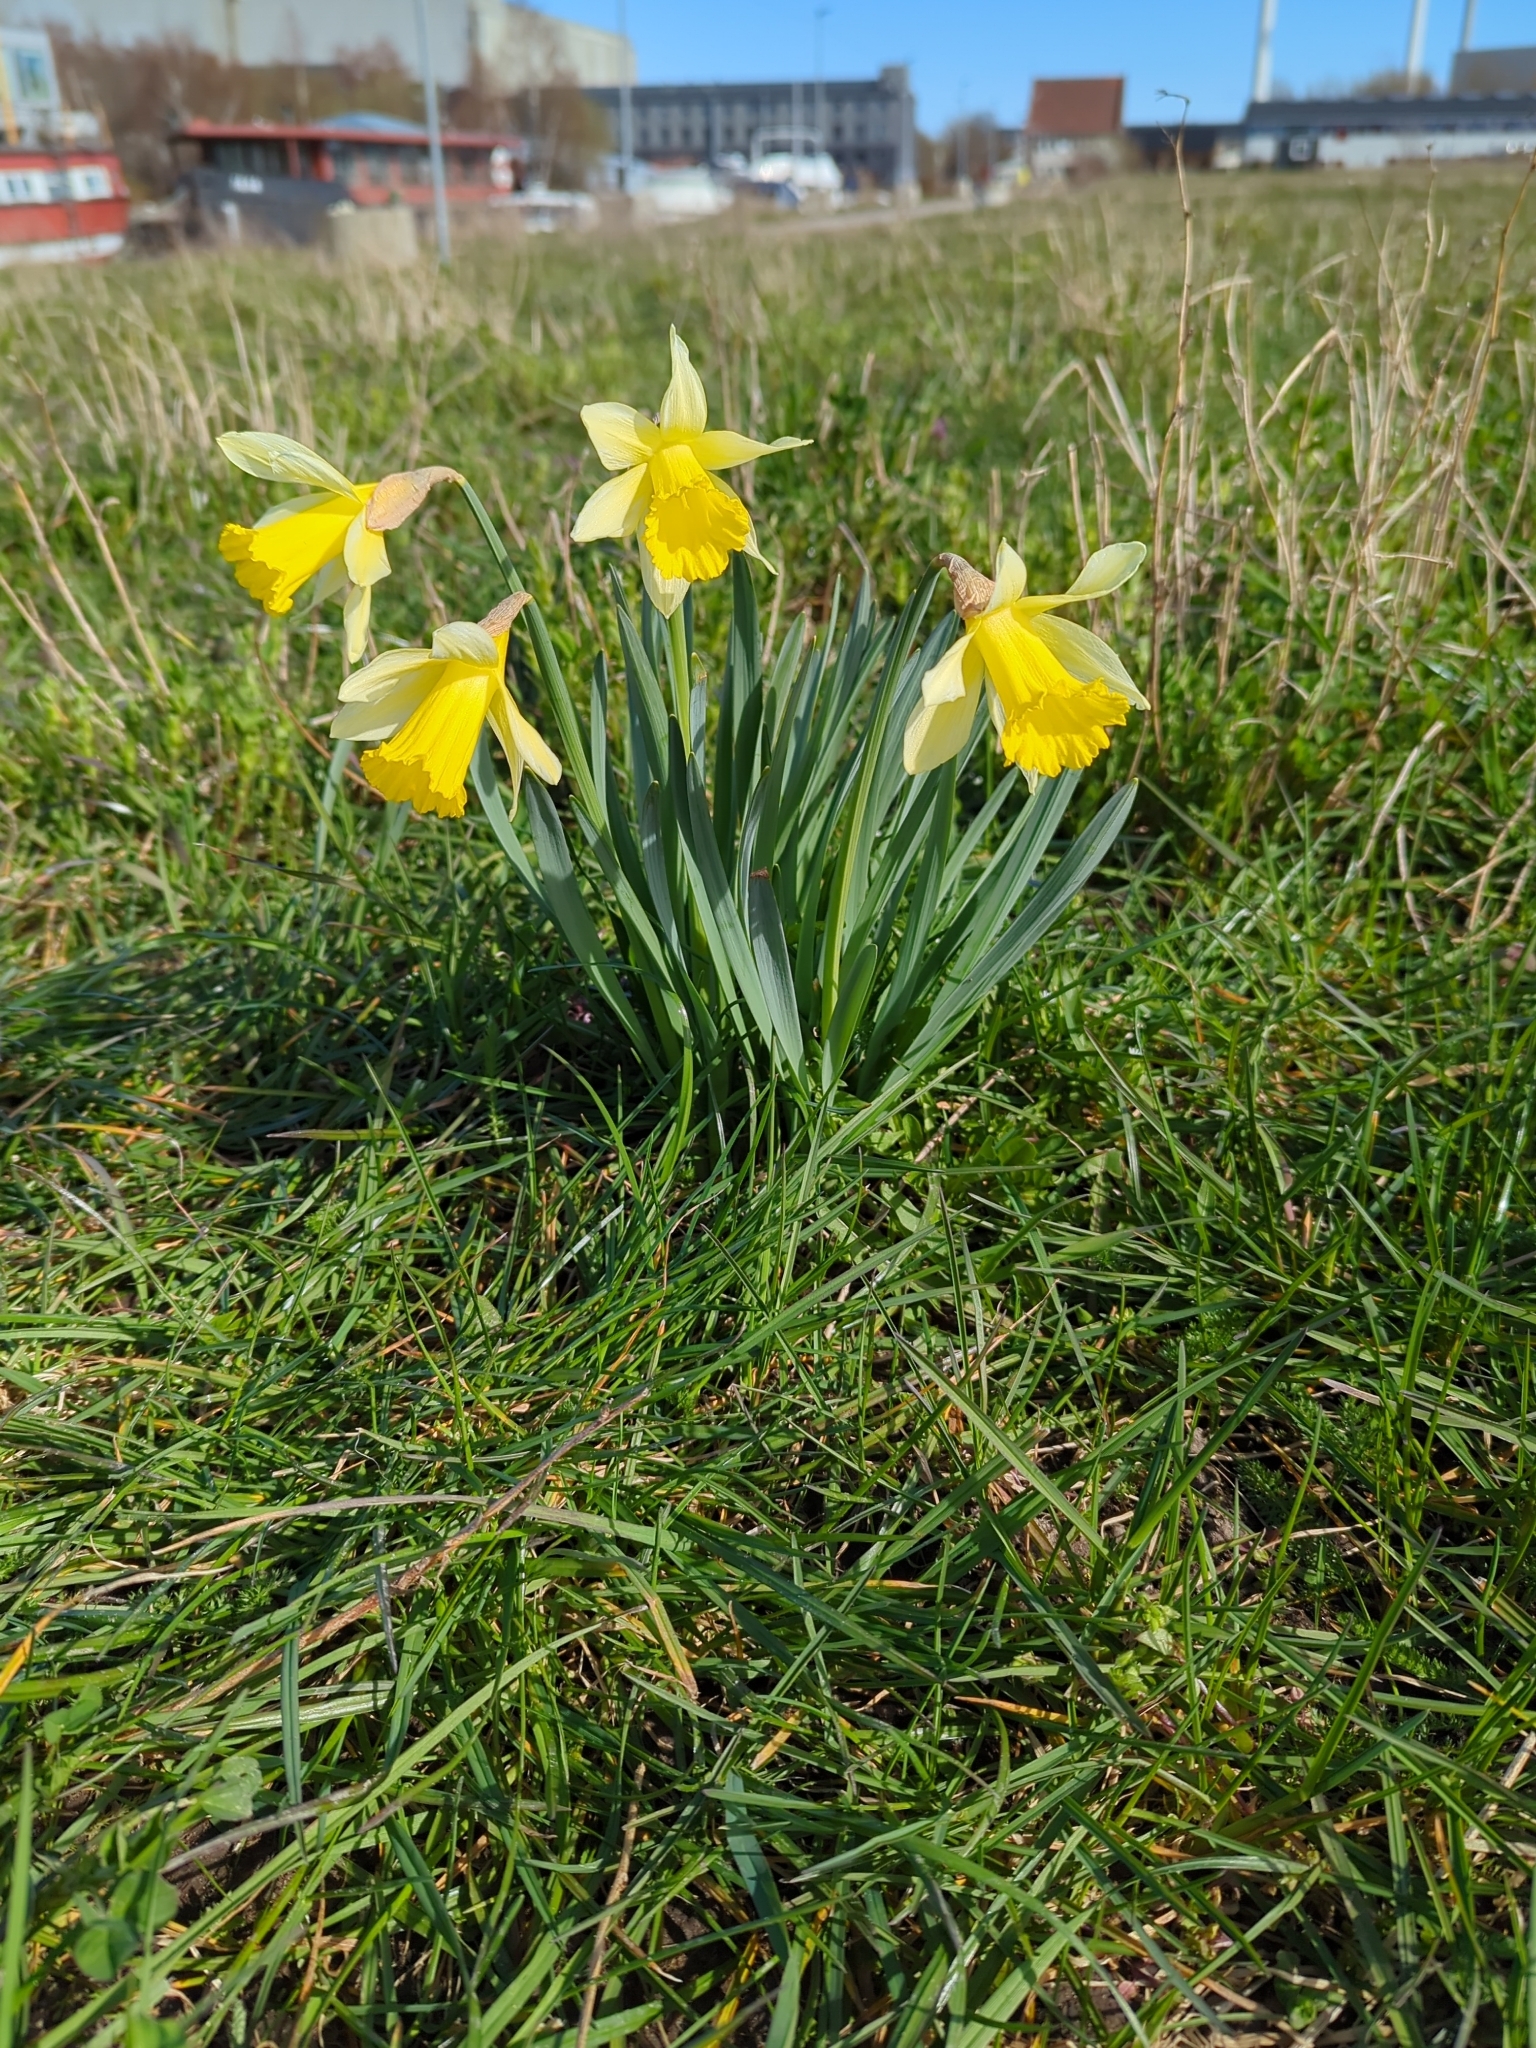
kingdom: Plantae
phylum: Tracheophyta
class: Liliopsida
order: Asparagales
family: Amaryllidaceae
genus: Narcissus
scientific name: Narcissus pseudonarcissus
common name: Daffodil
